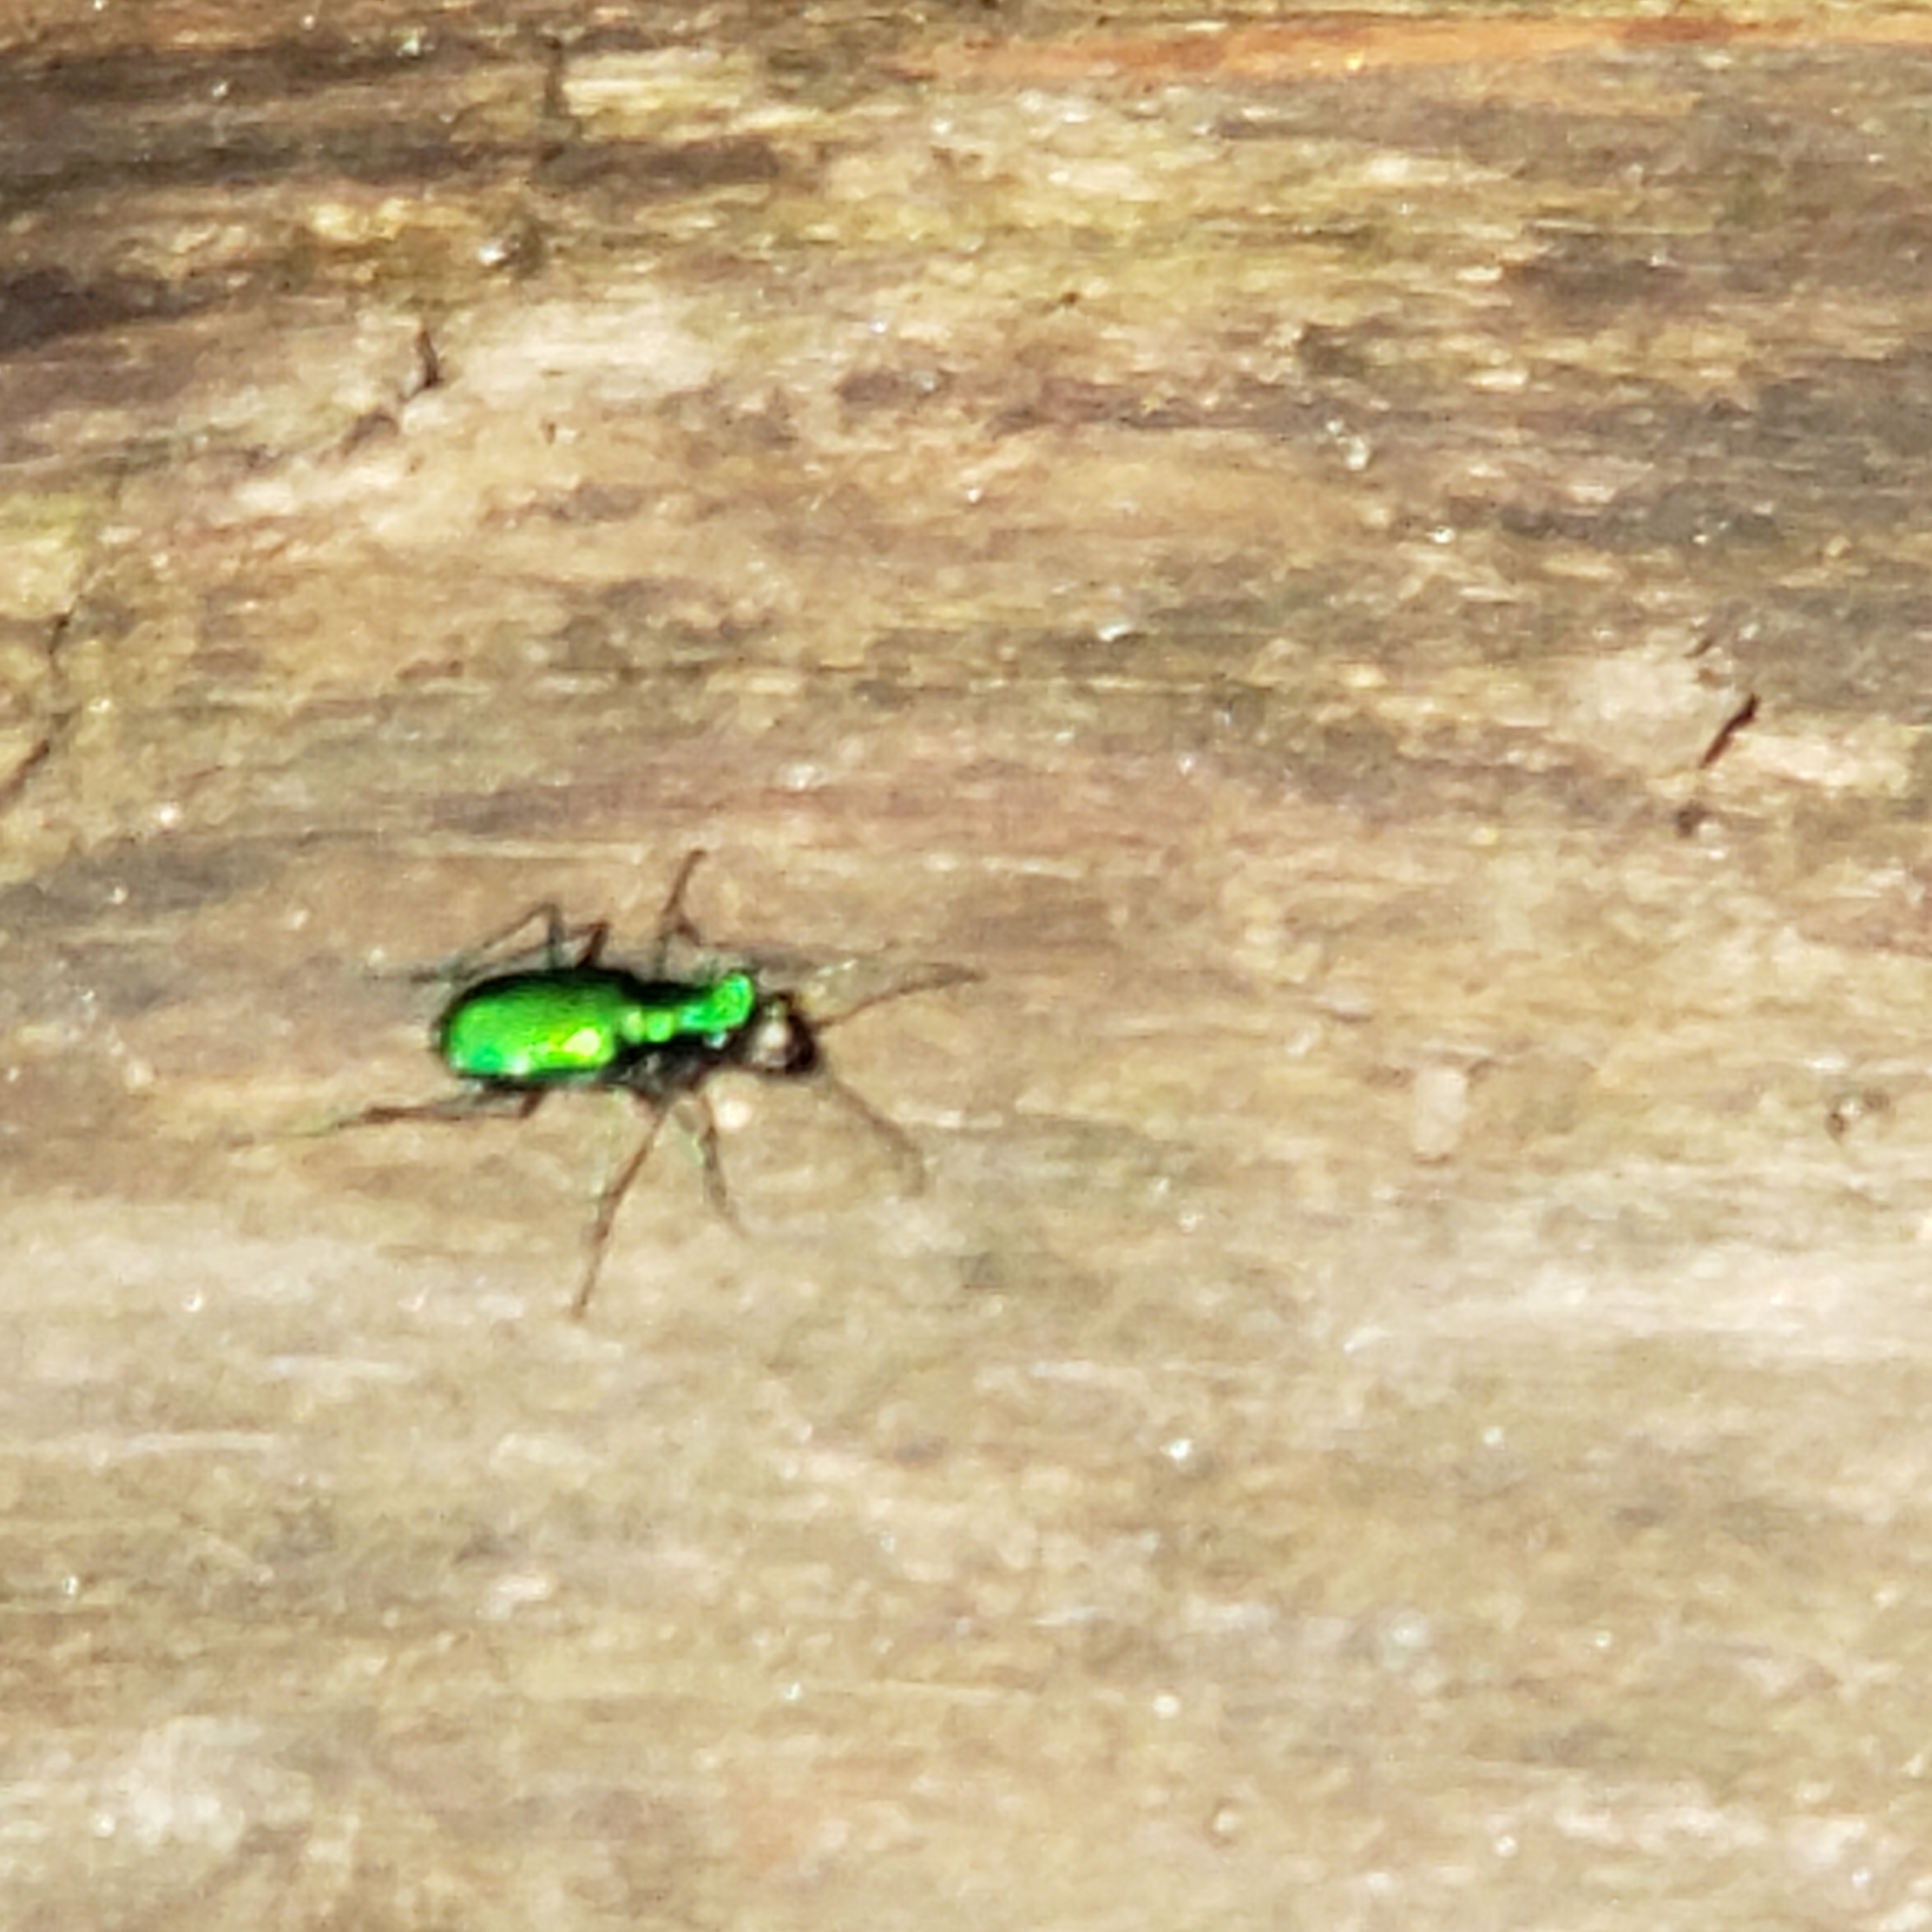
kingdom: Animalia
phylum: Arthropoda
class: Insecta
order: Coleoptera
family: Carabidae
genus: Cicindela
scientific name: Cicindela sexguttata
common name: Six-spotted tiger beetle
